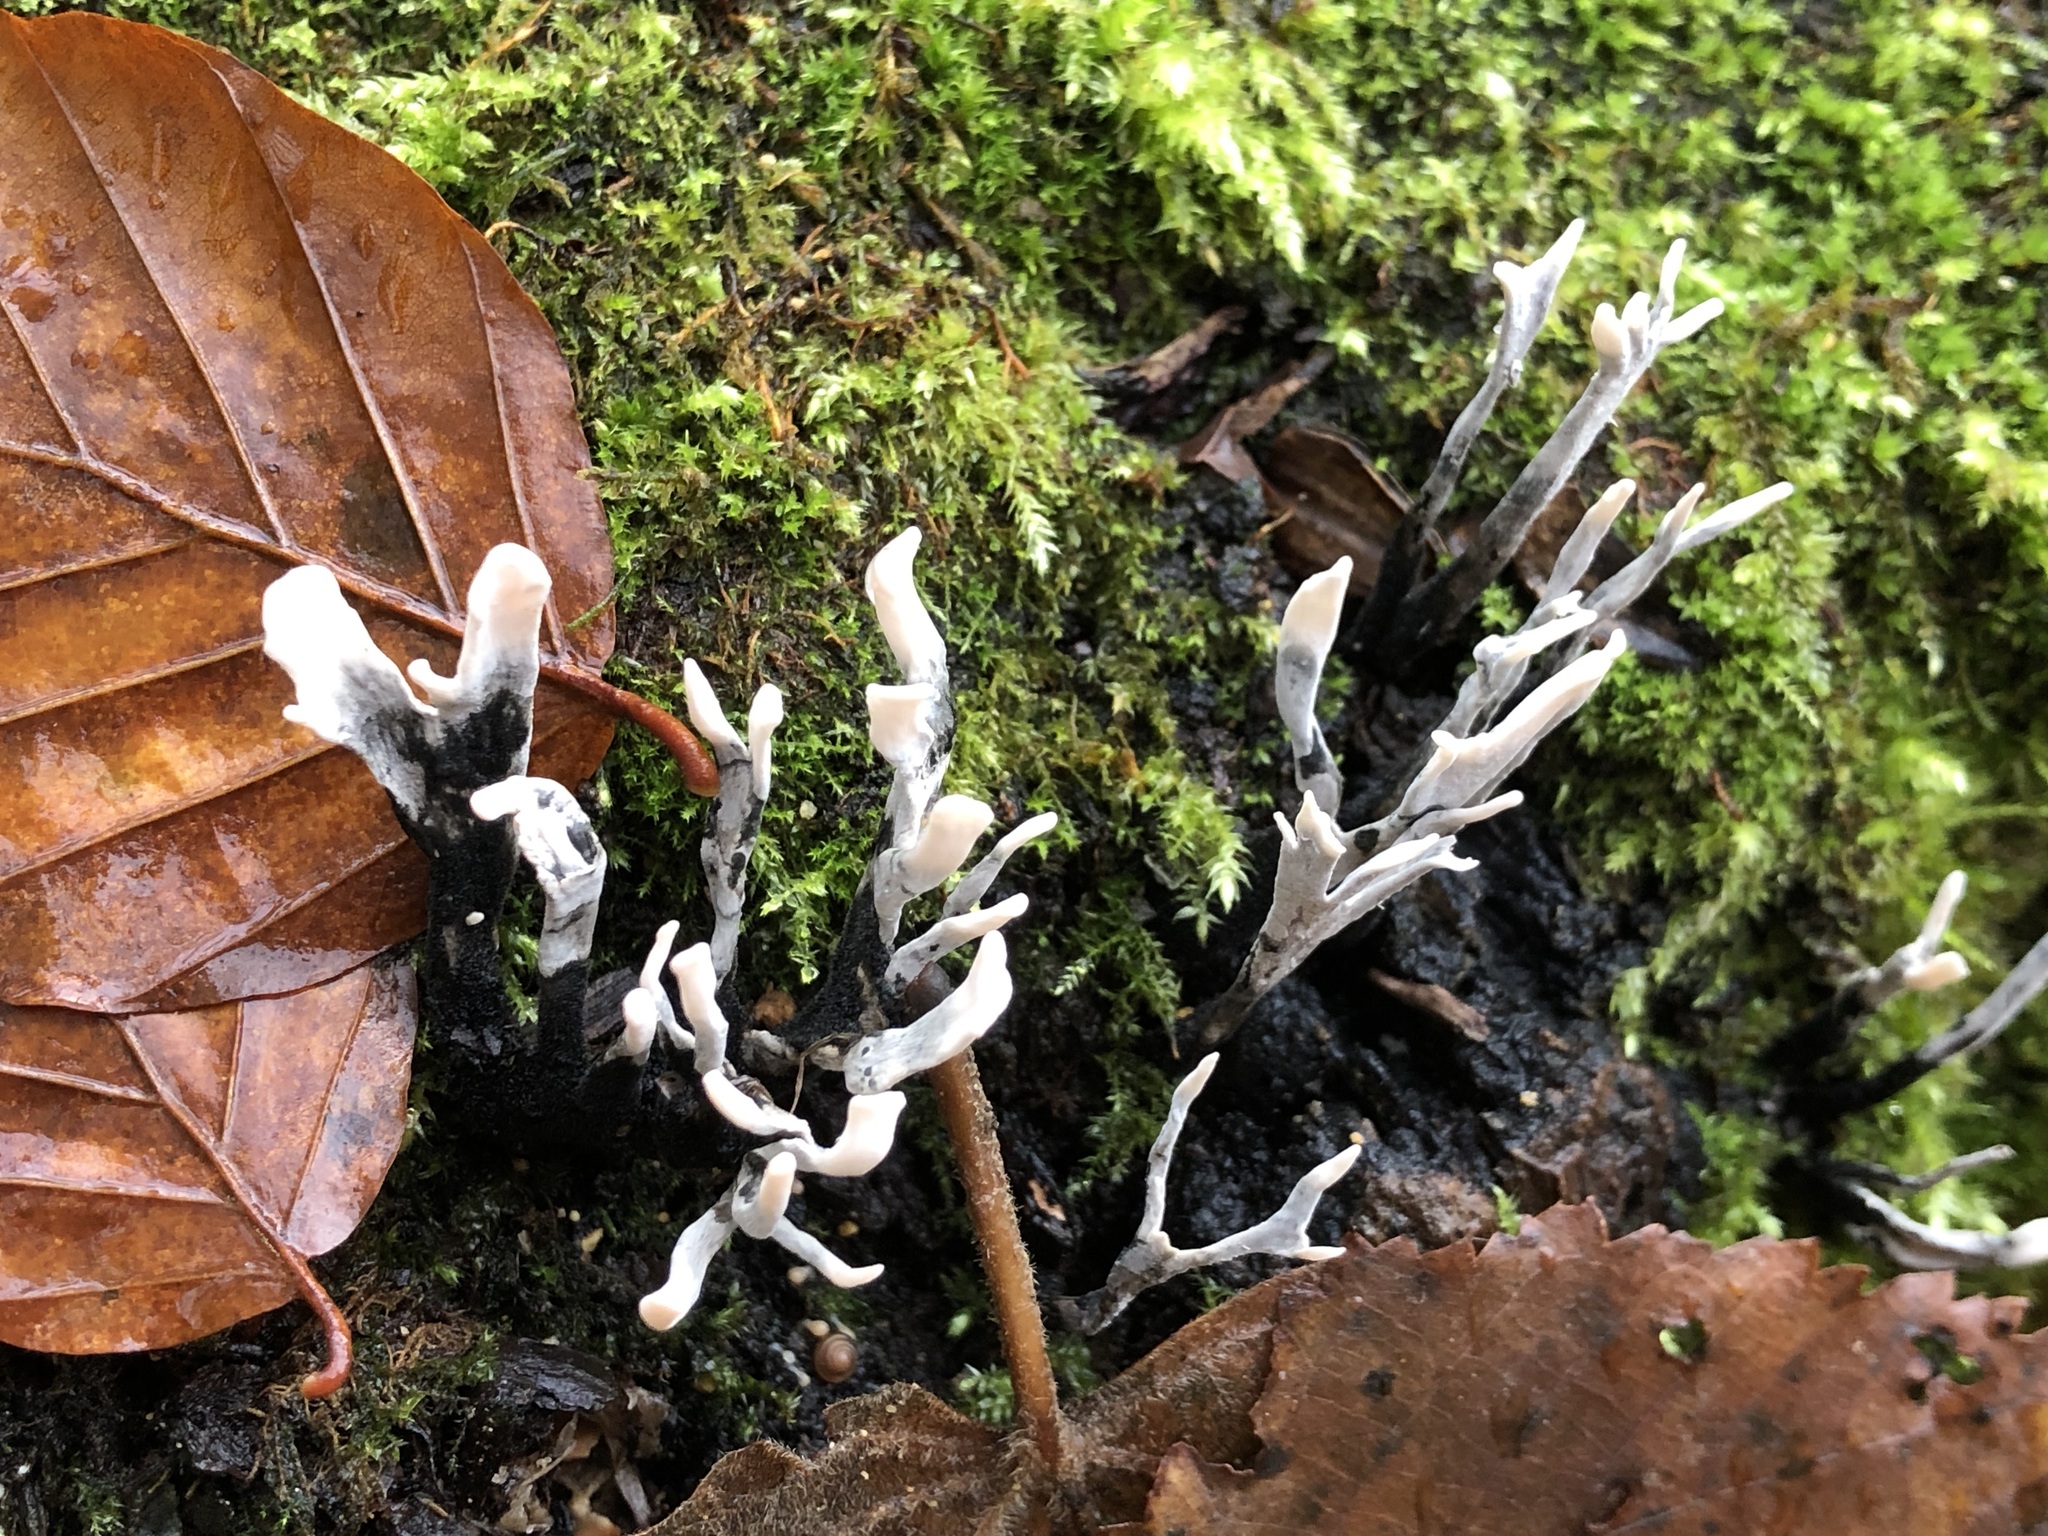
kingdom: Fungi
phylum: Ascomycota
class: Sordariomycetes
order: Xylariales
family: Xylariaceae
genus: Xylaria
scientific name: Xylaria hypoxylon
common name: Candle-snuff fungus
